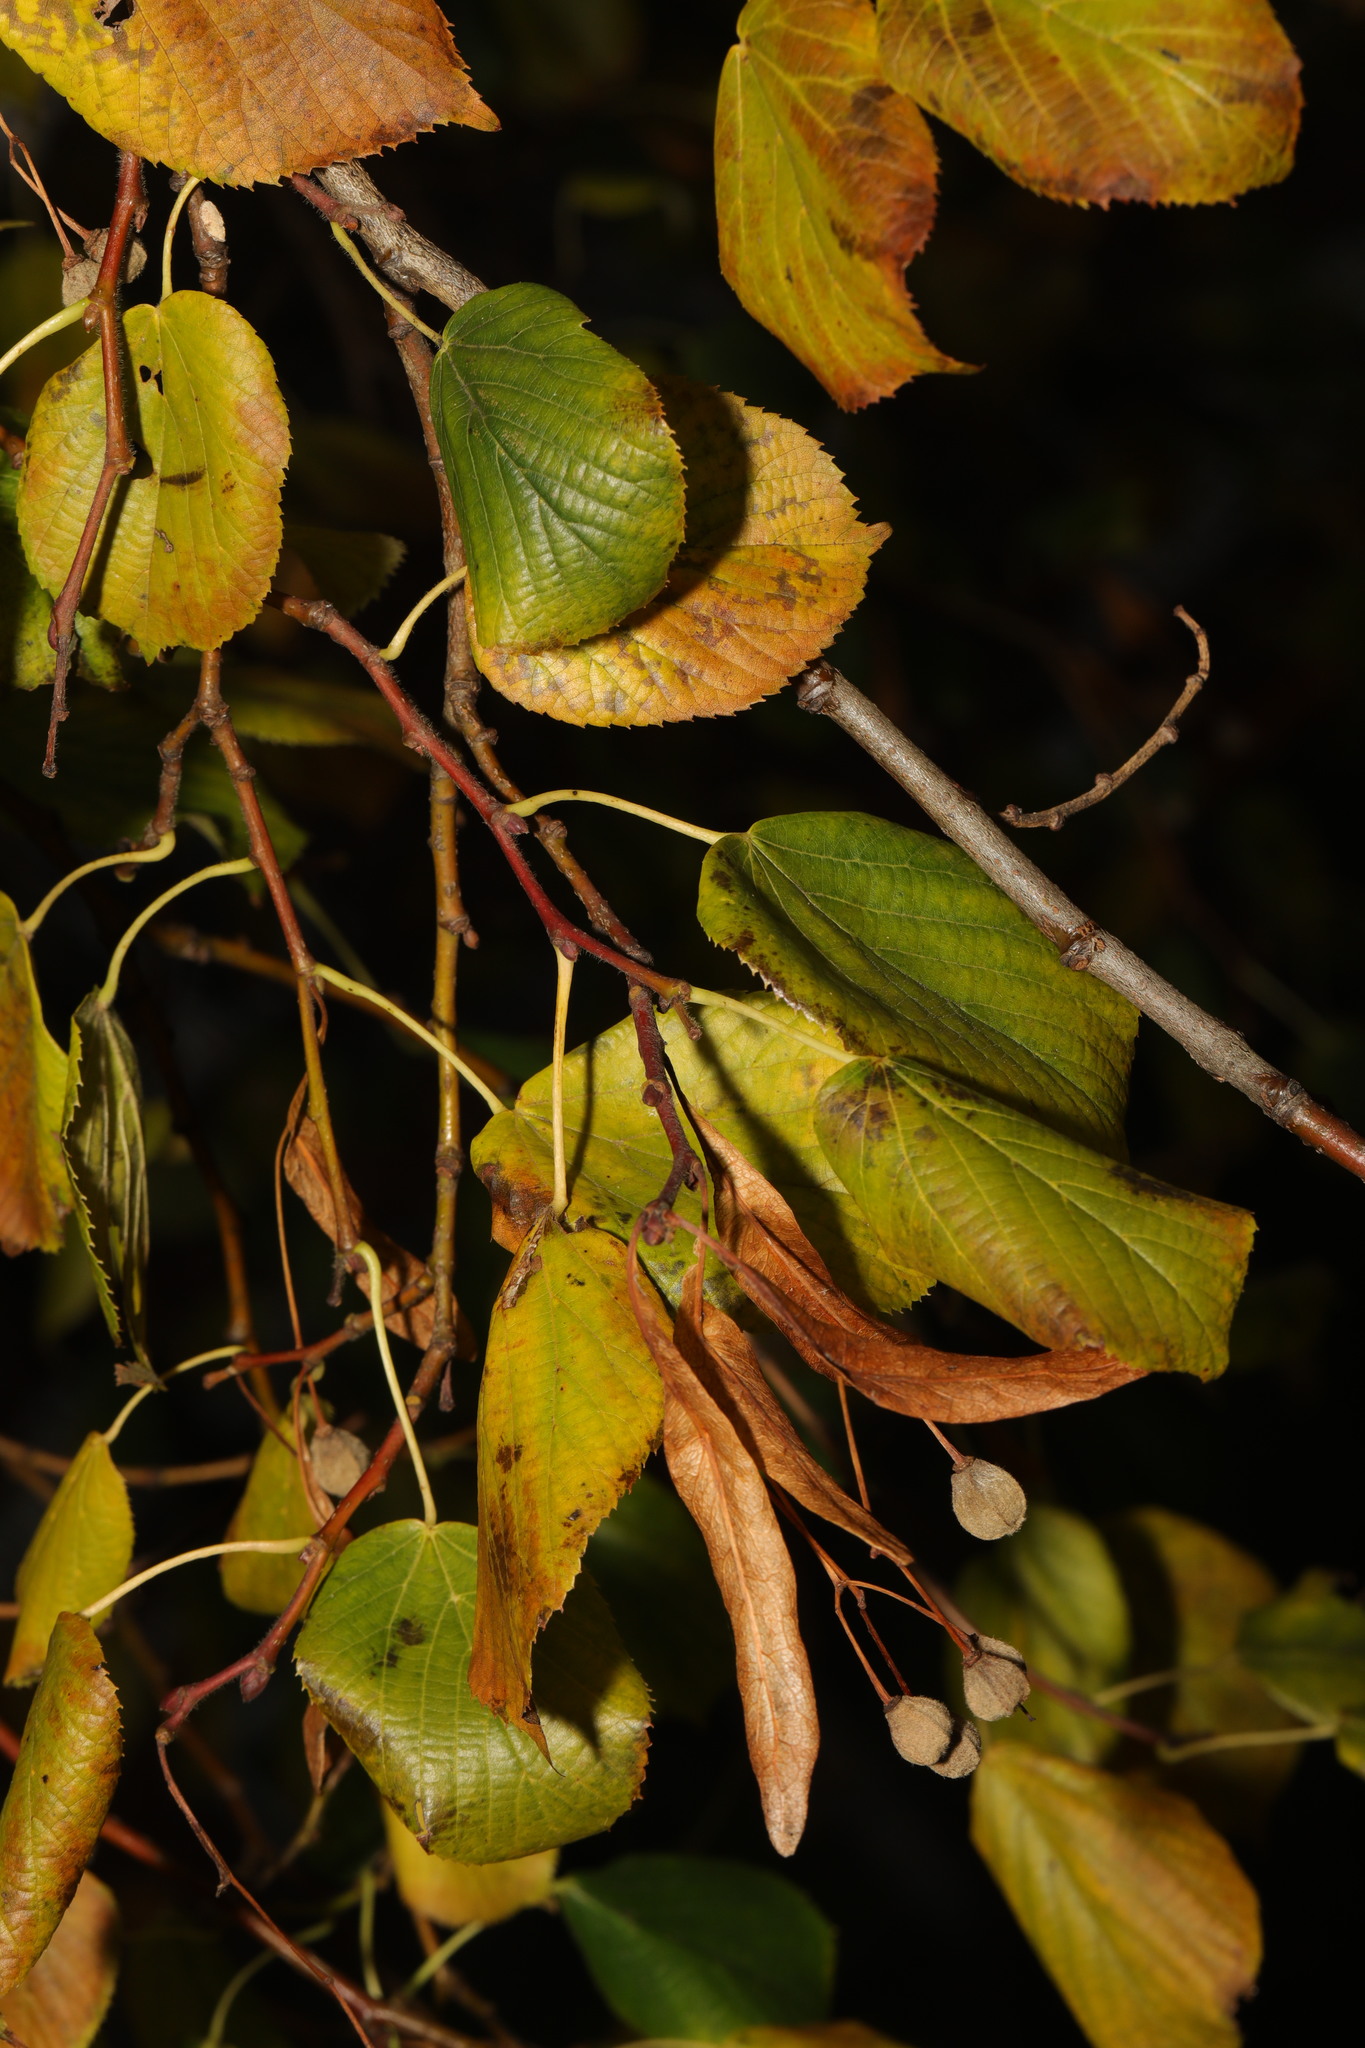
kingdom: Plantae
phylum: Tracheophyta
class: Magnoliopsida
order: Malvales
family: Malvaceae
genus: Tilia
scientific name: Tilia europaea
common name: European linden
